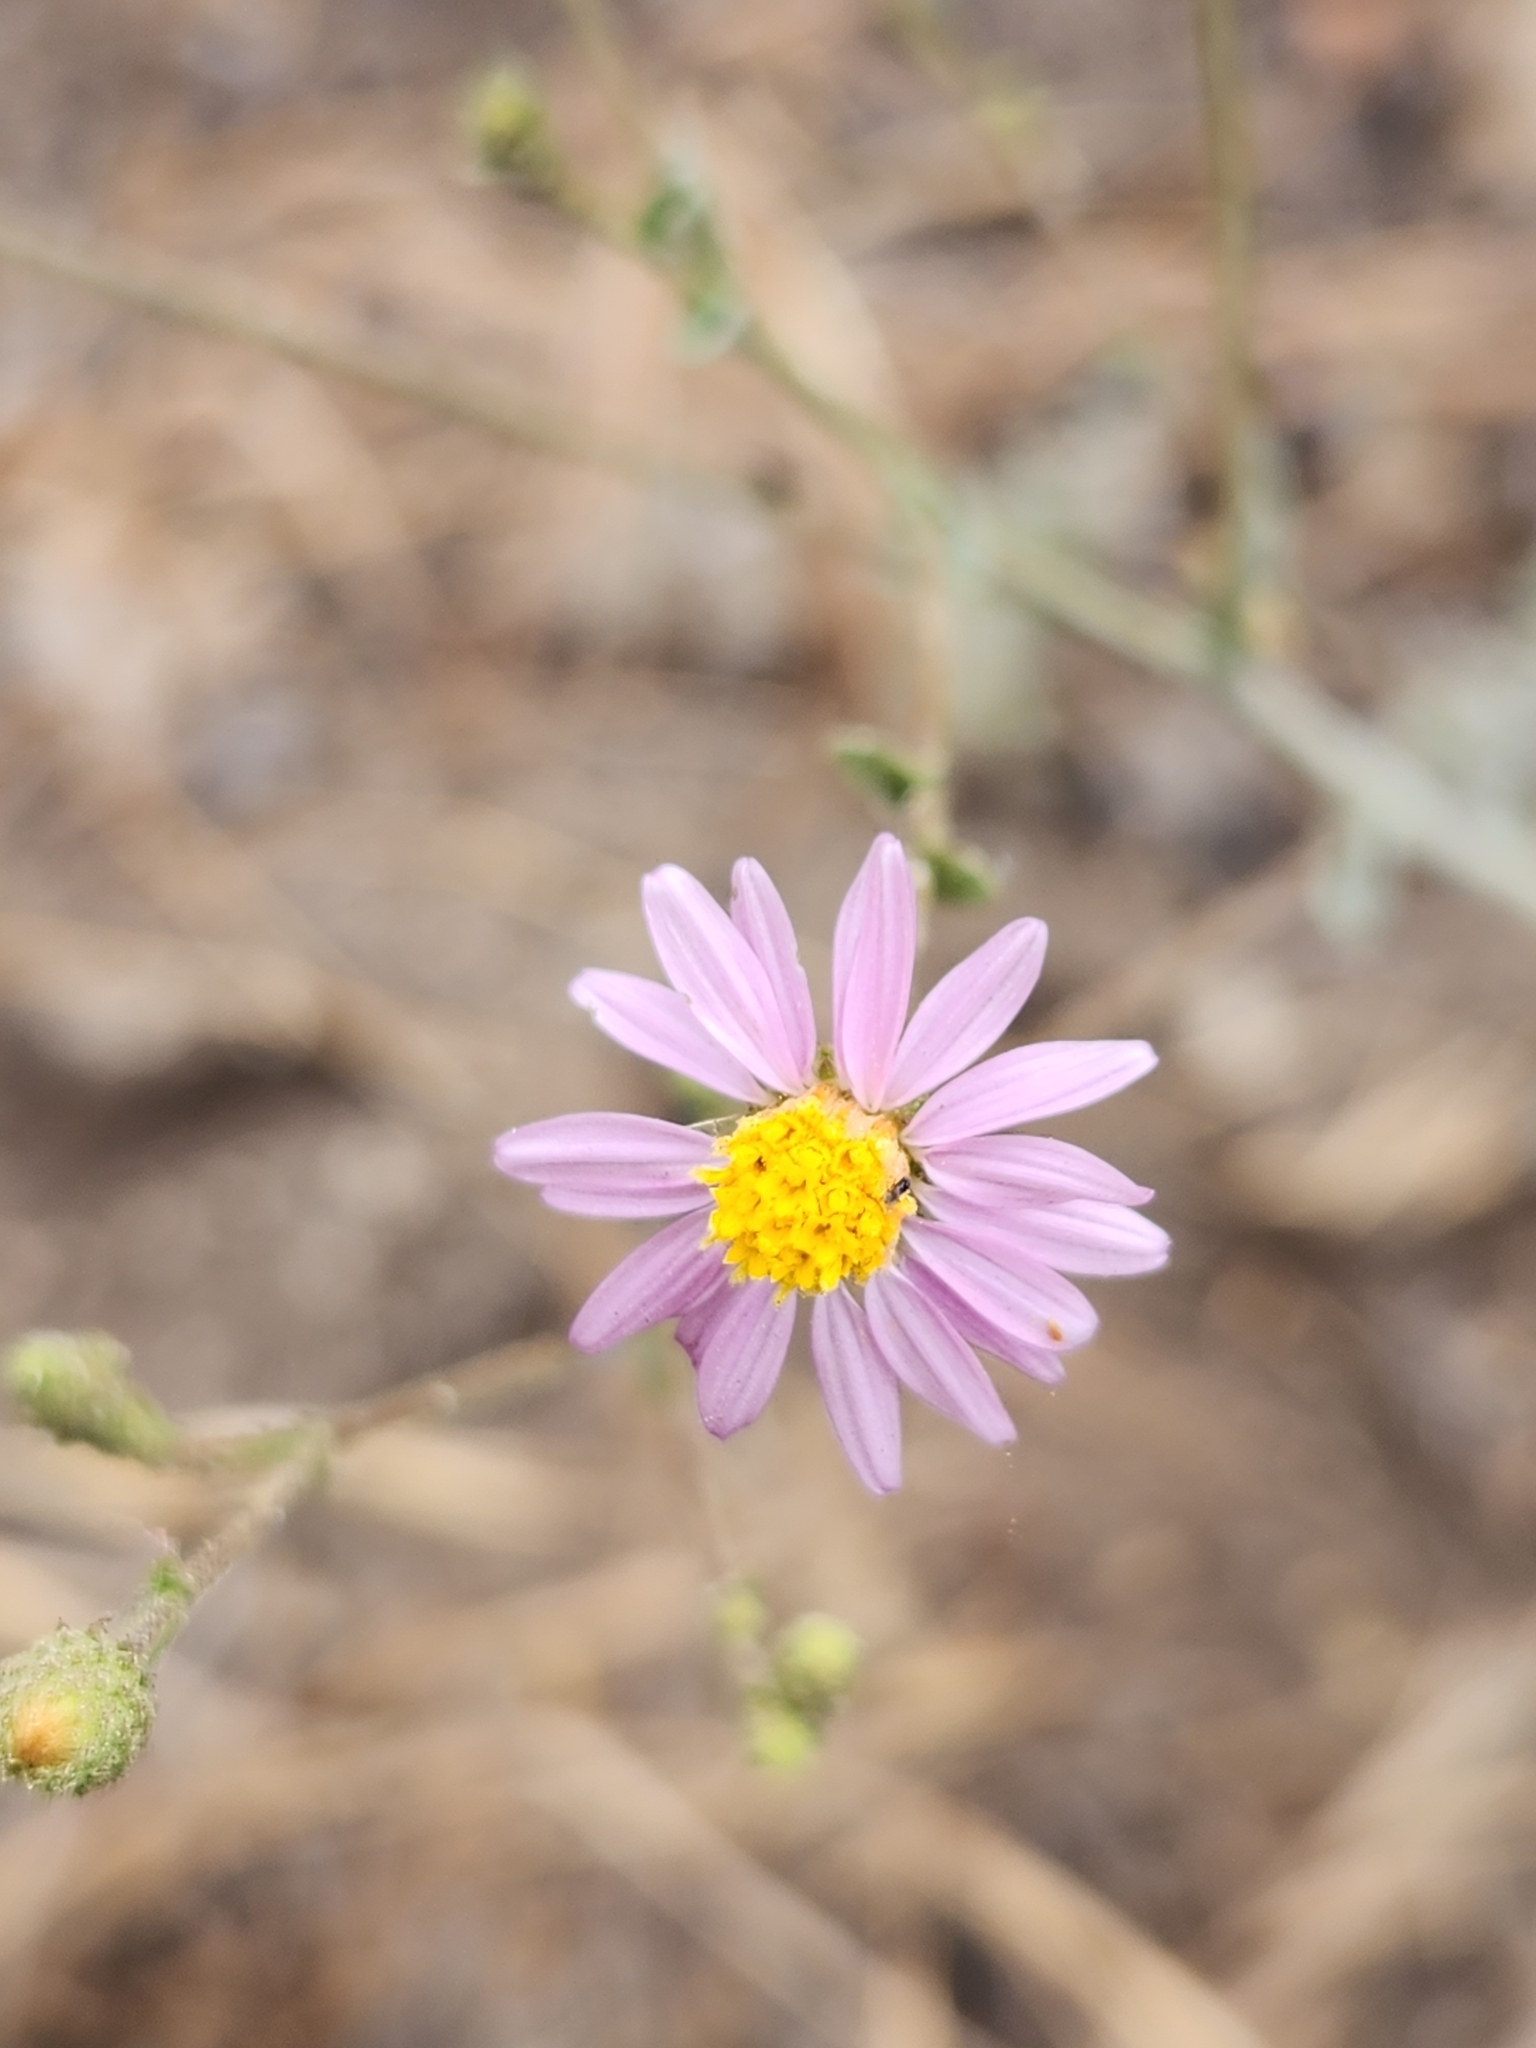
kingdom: Plantae
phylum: Tracheophyta
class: Magnoliopsida
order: Asterales
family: Asteraceae
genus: Corethrogyne
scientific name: Corethrogyne filaginifolia
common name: Sand-aster
